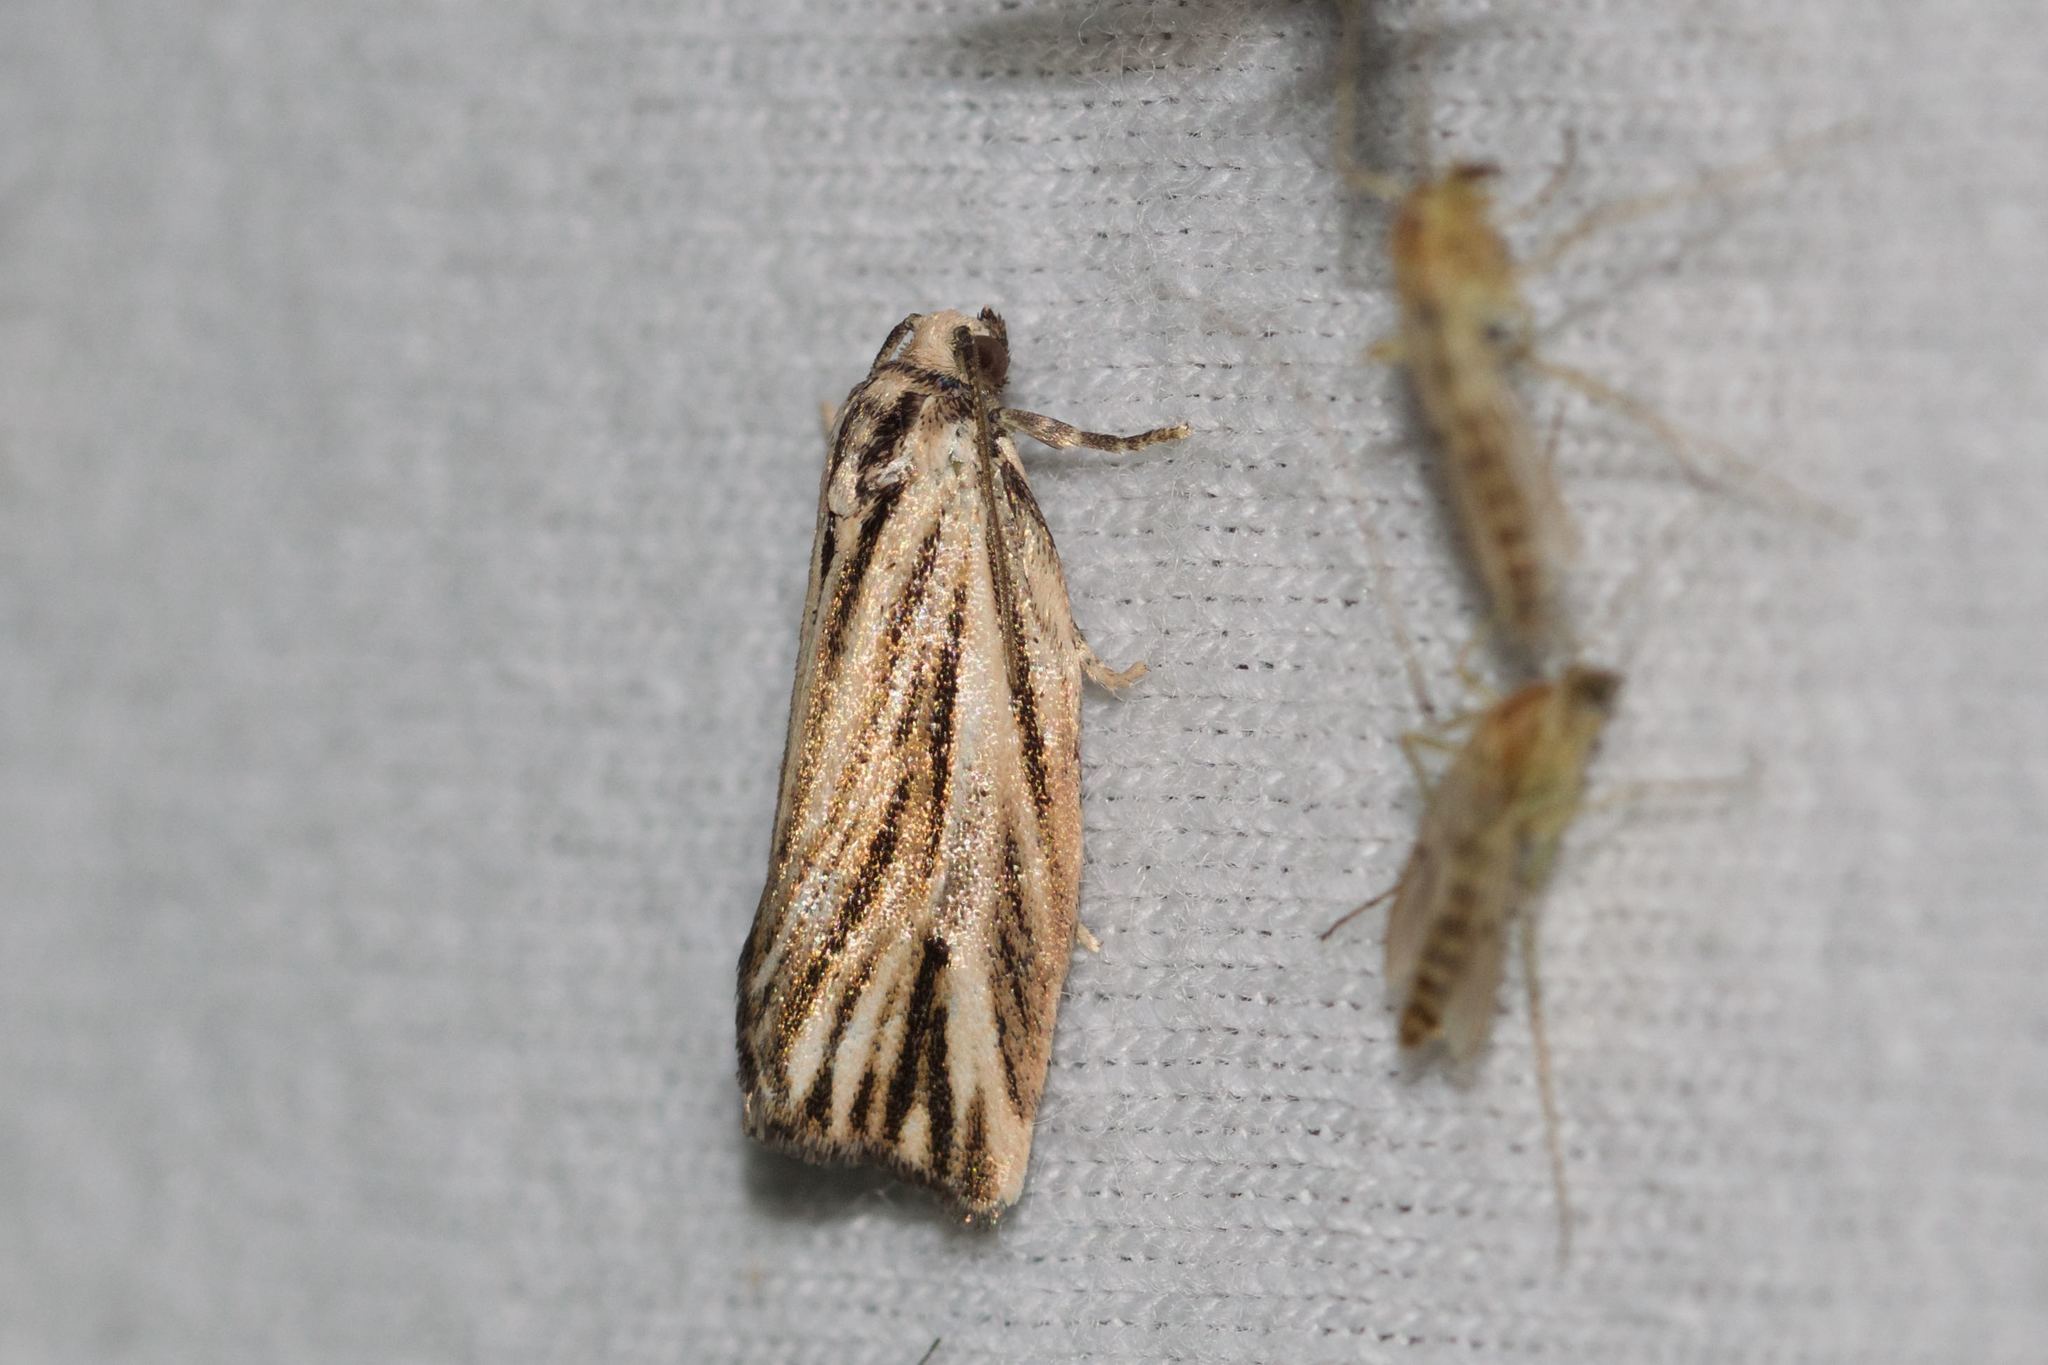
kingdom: Animalia
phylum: Arthropoda
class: Insecta
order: Lepidoptera
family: Tortricidae
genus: Archips
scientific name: Archips strianus
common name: Striated tortrix moth
